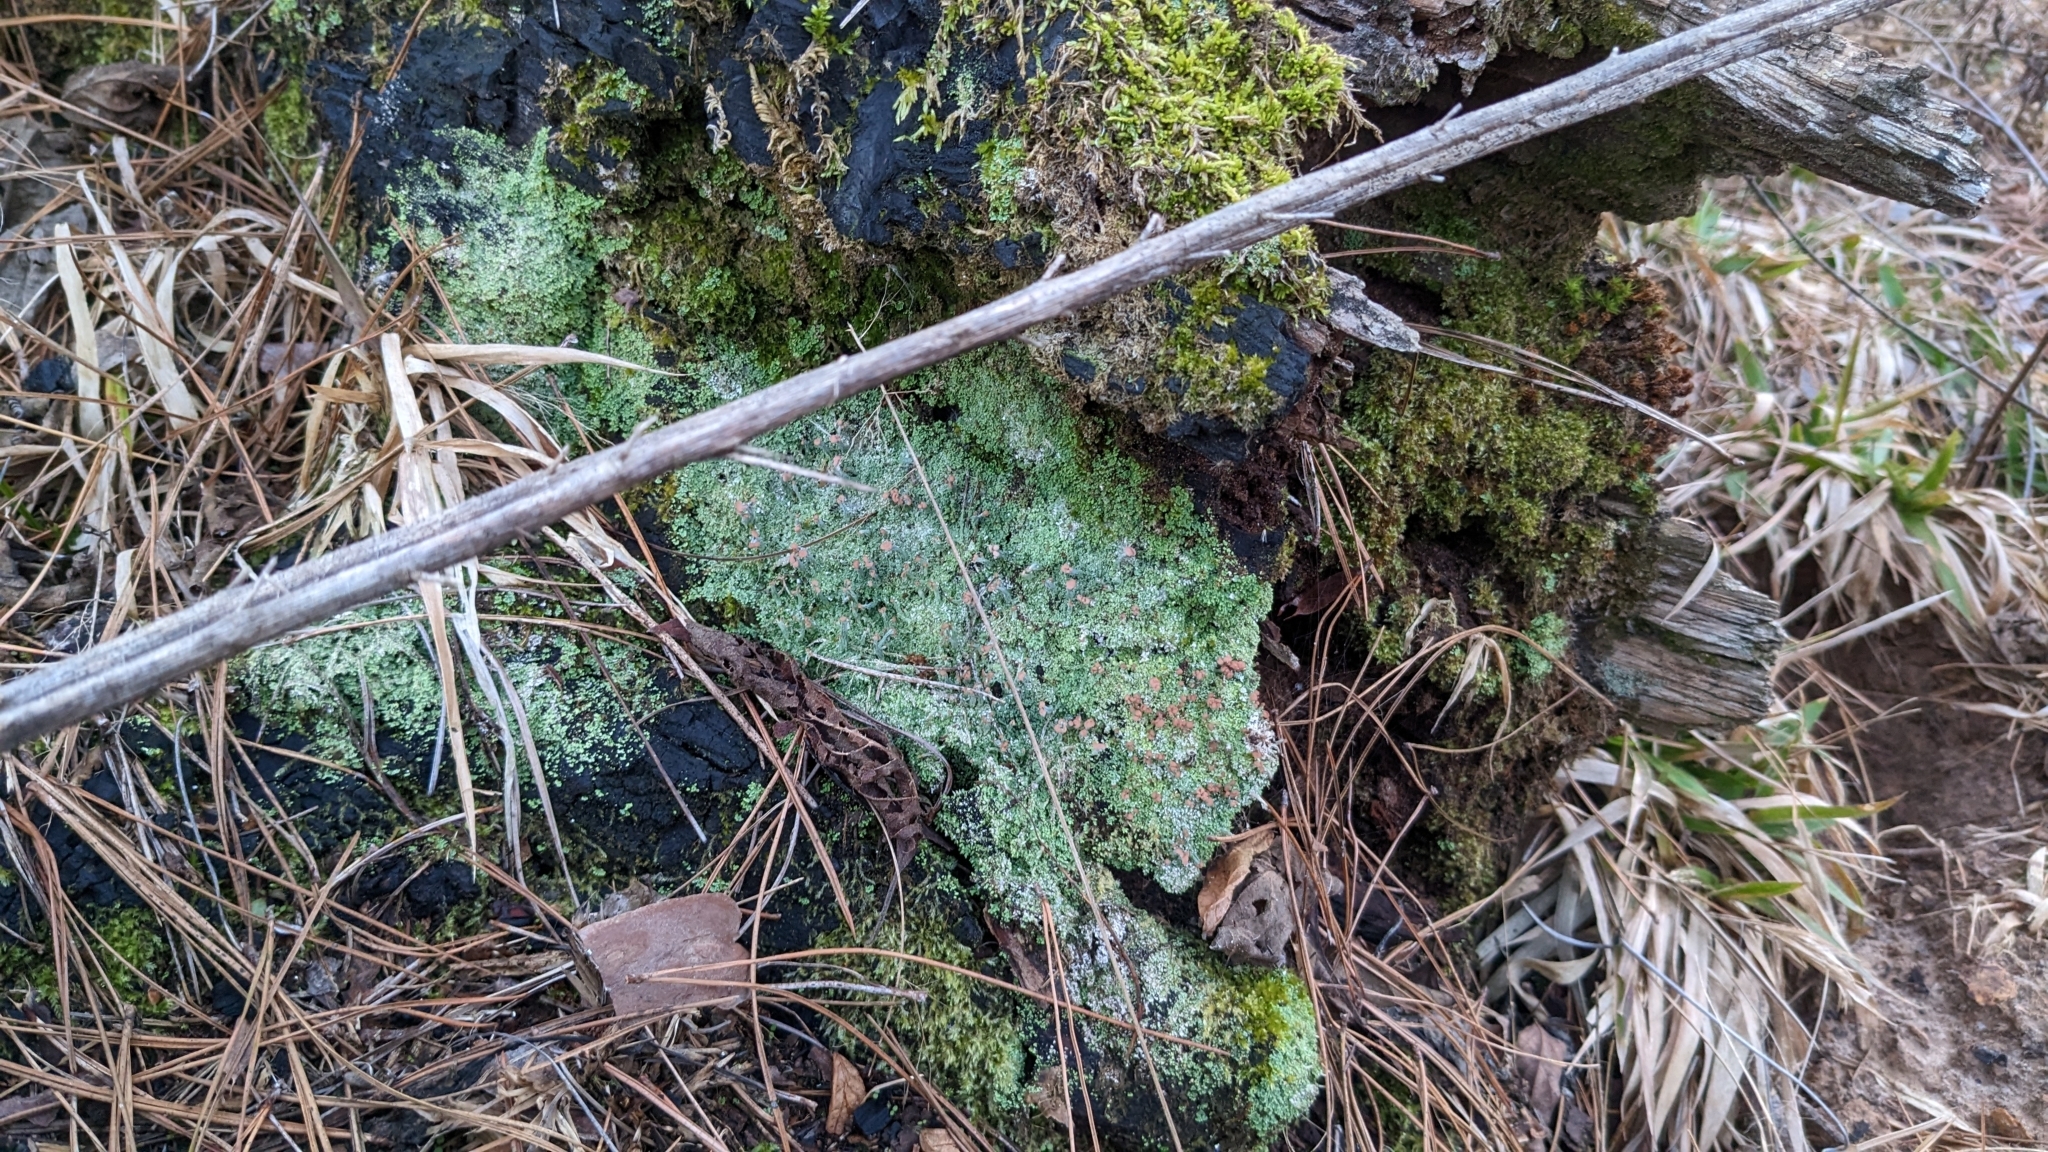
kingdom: Fungi
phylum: Ascomycota
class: Lecanoromycetes
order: Lecanorales
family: Cladoniaceae
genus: Cladonia
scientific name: Cladonia peziziformis
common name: Cup lichen
